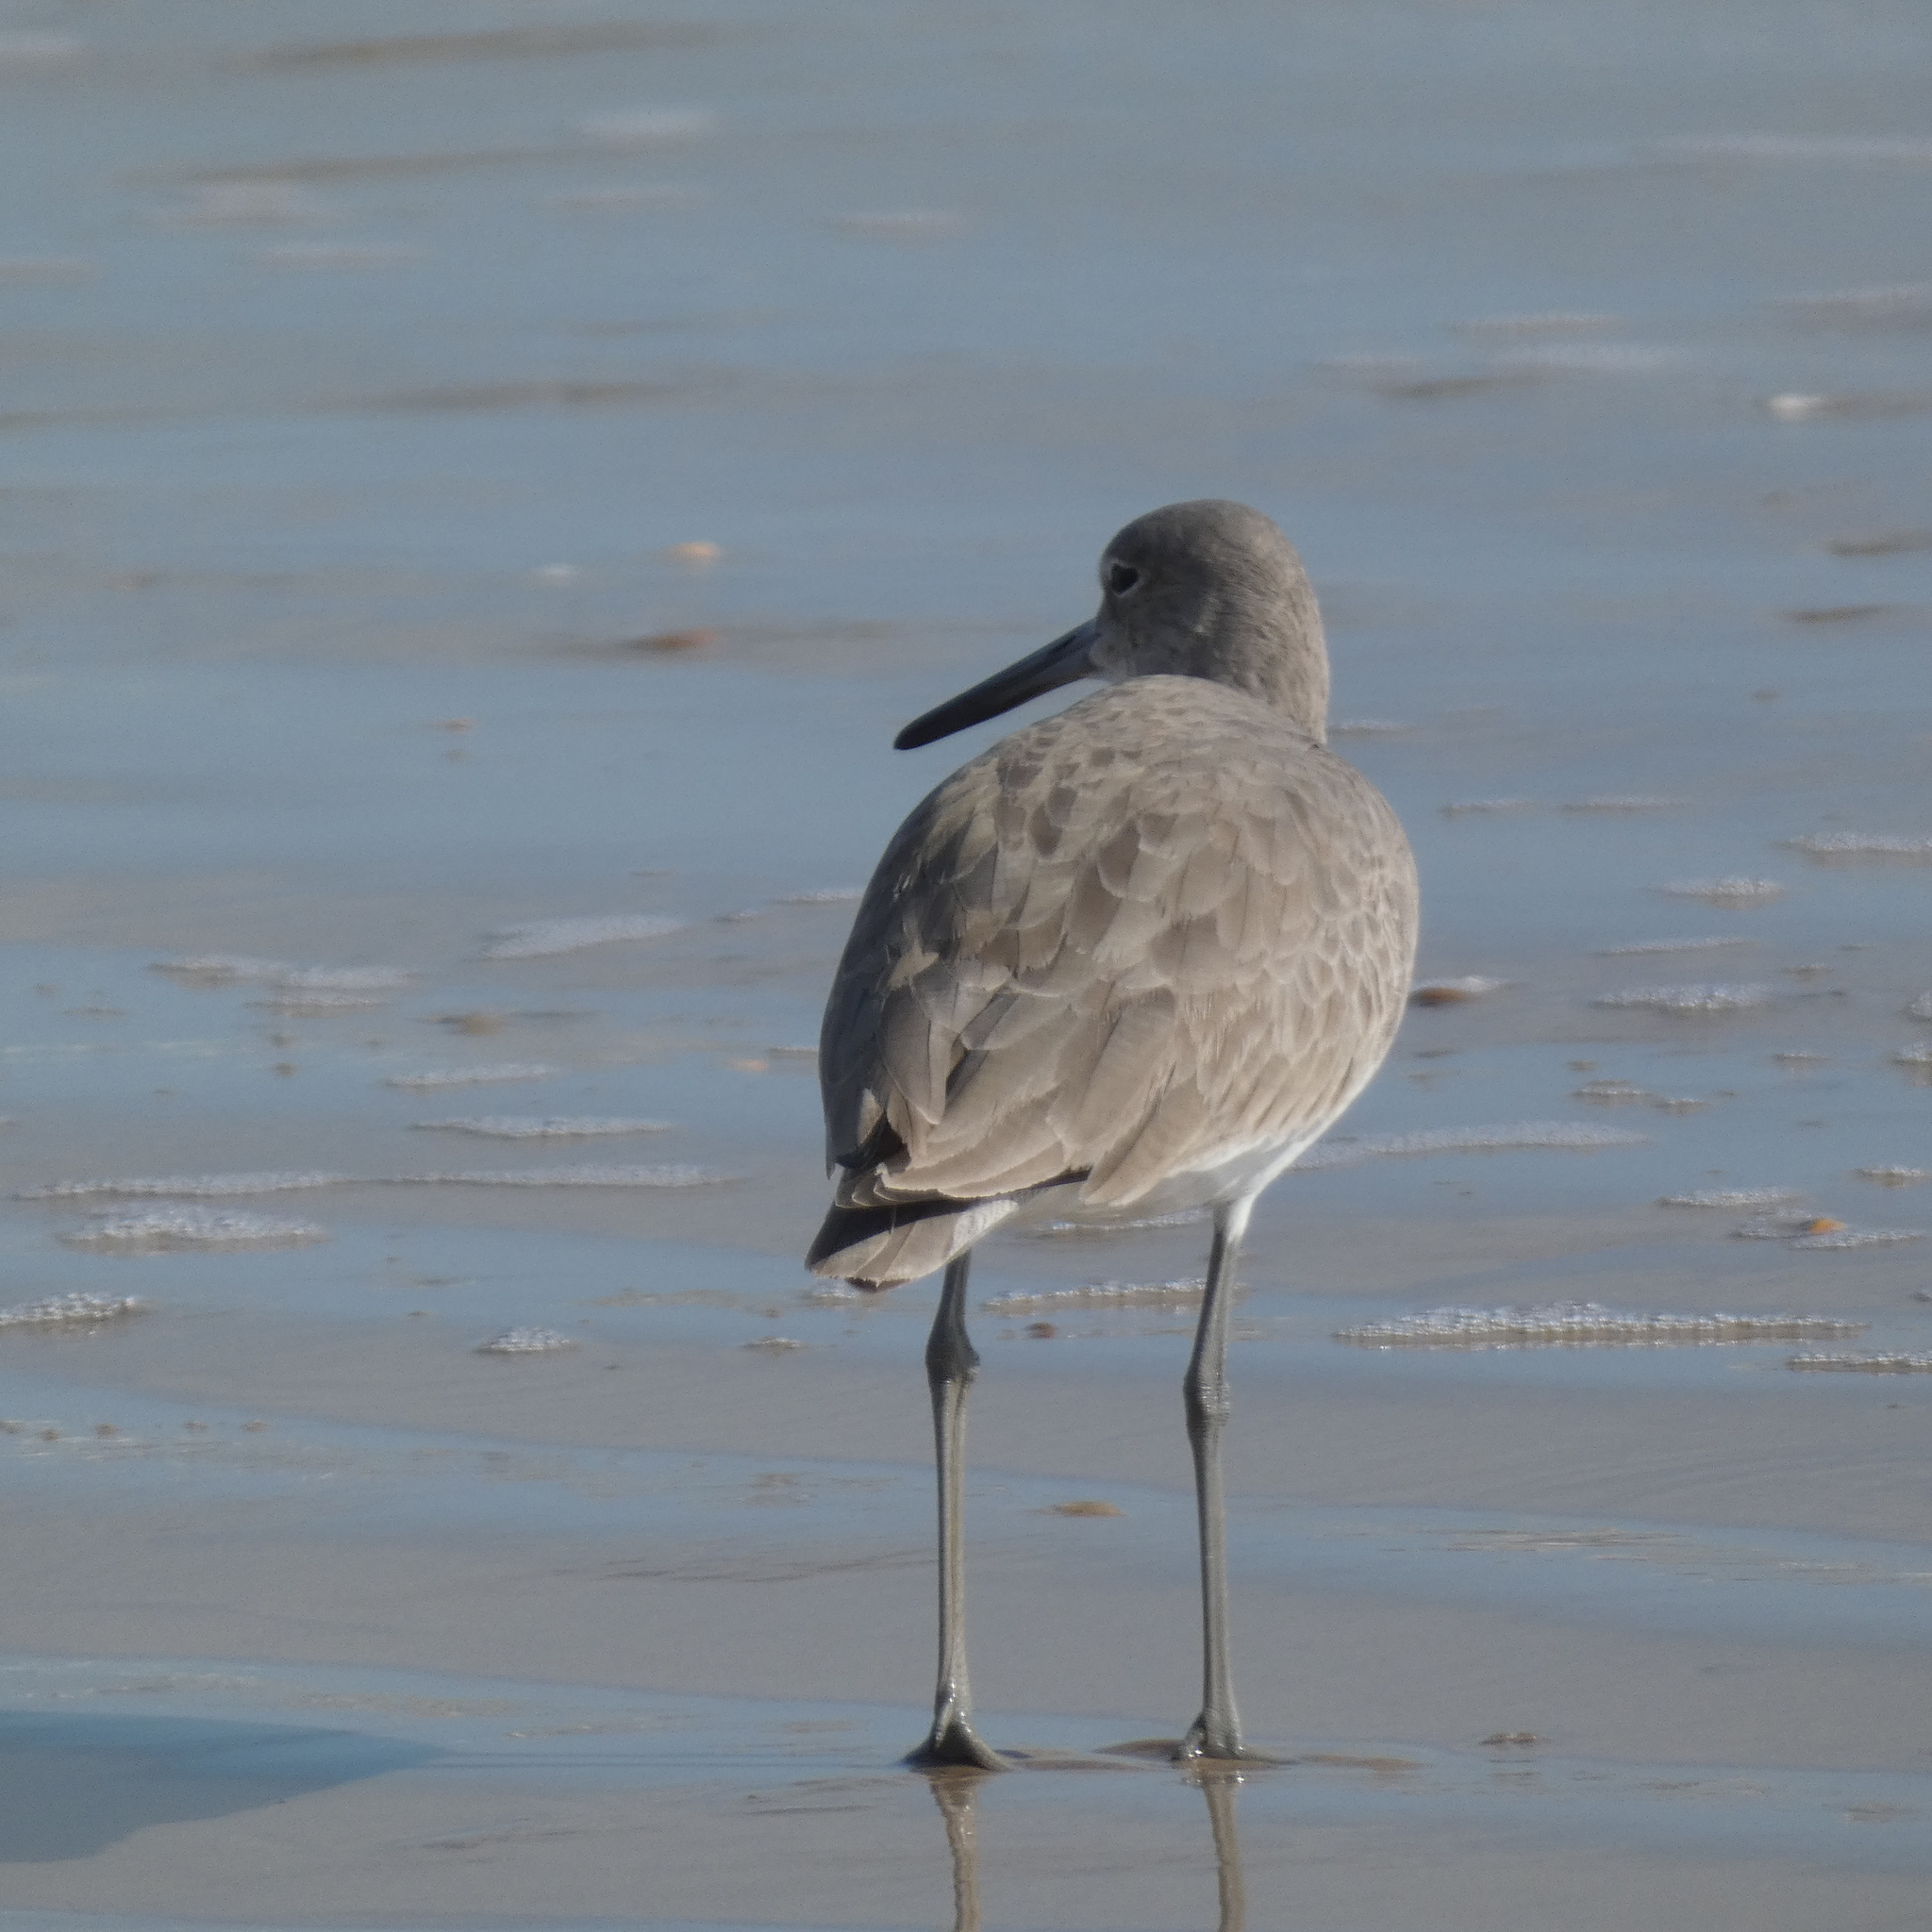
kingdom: Animalia
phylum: Chordata
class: Aves
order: Charadriiformes
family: Scolopacidae
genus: Tringa
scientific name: Tringa semipalmata
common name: Willet
